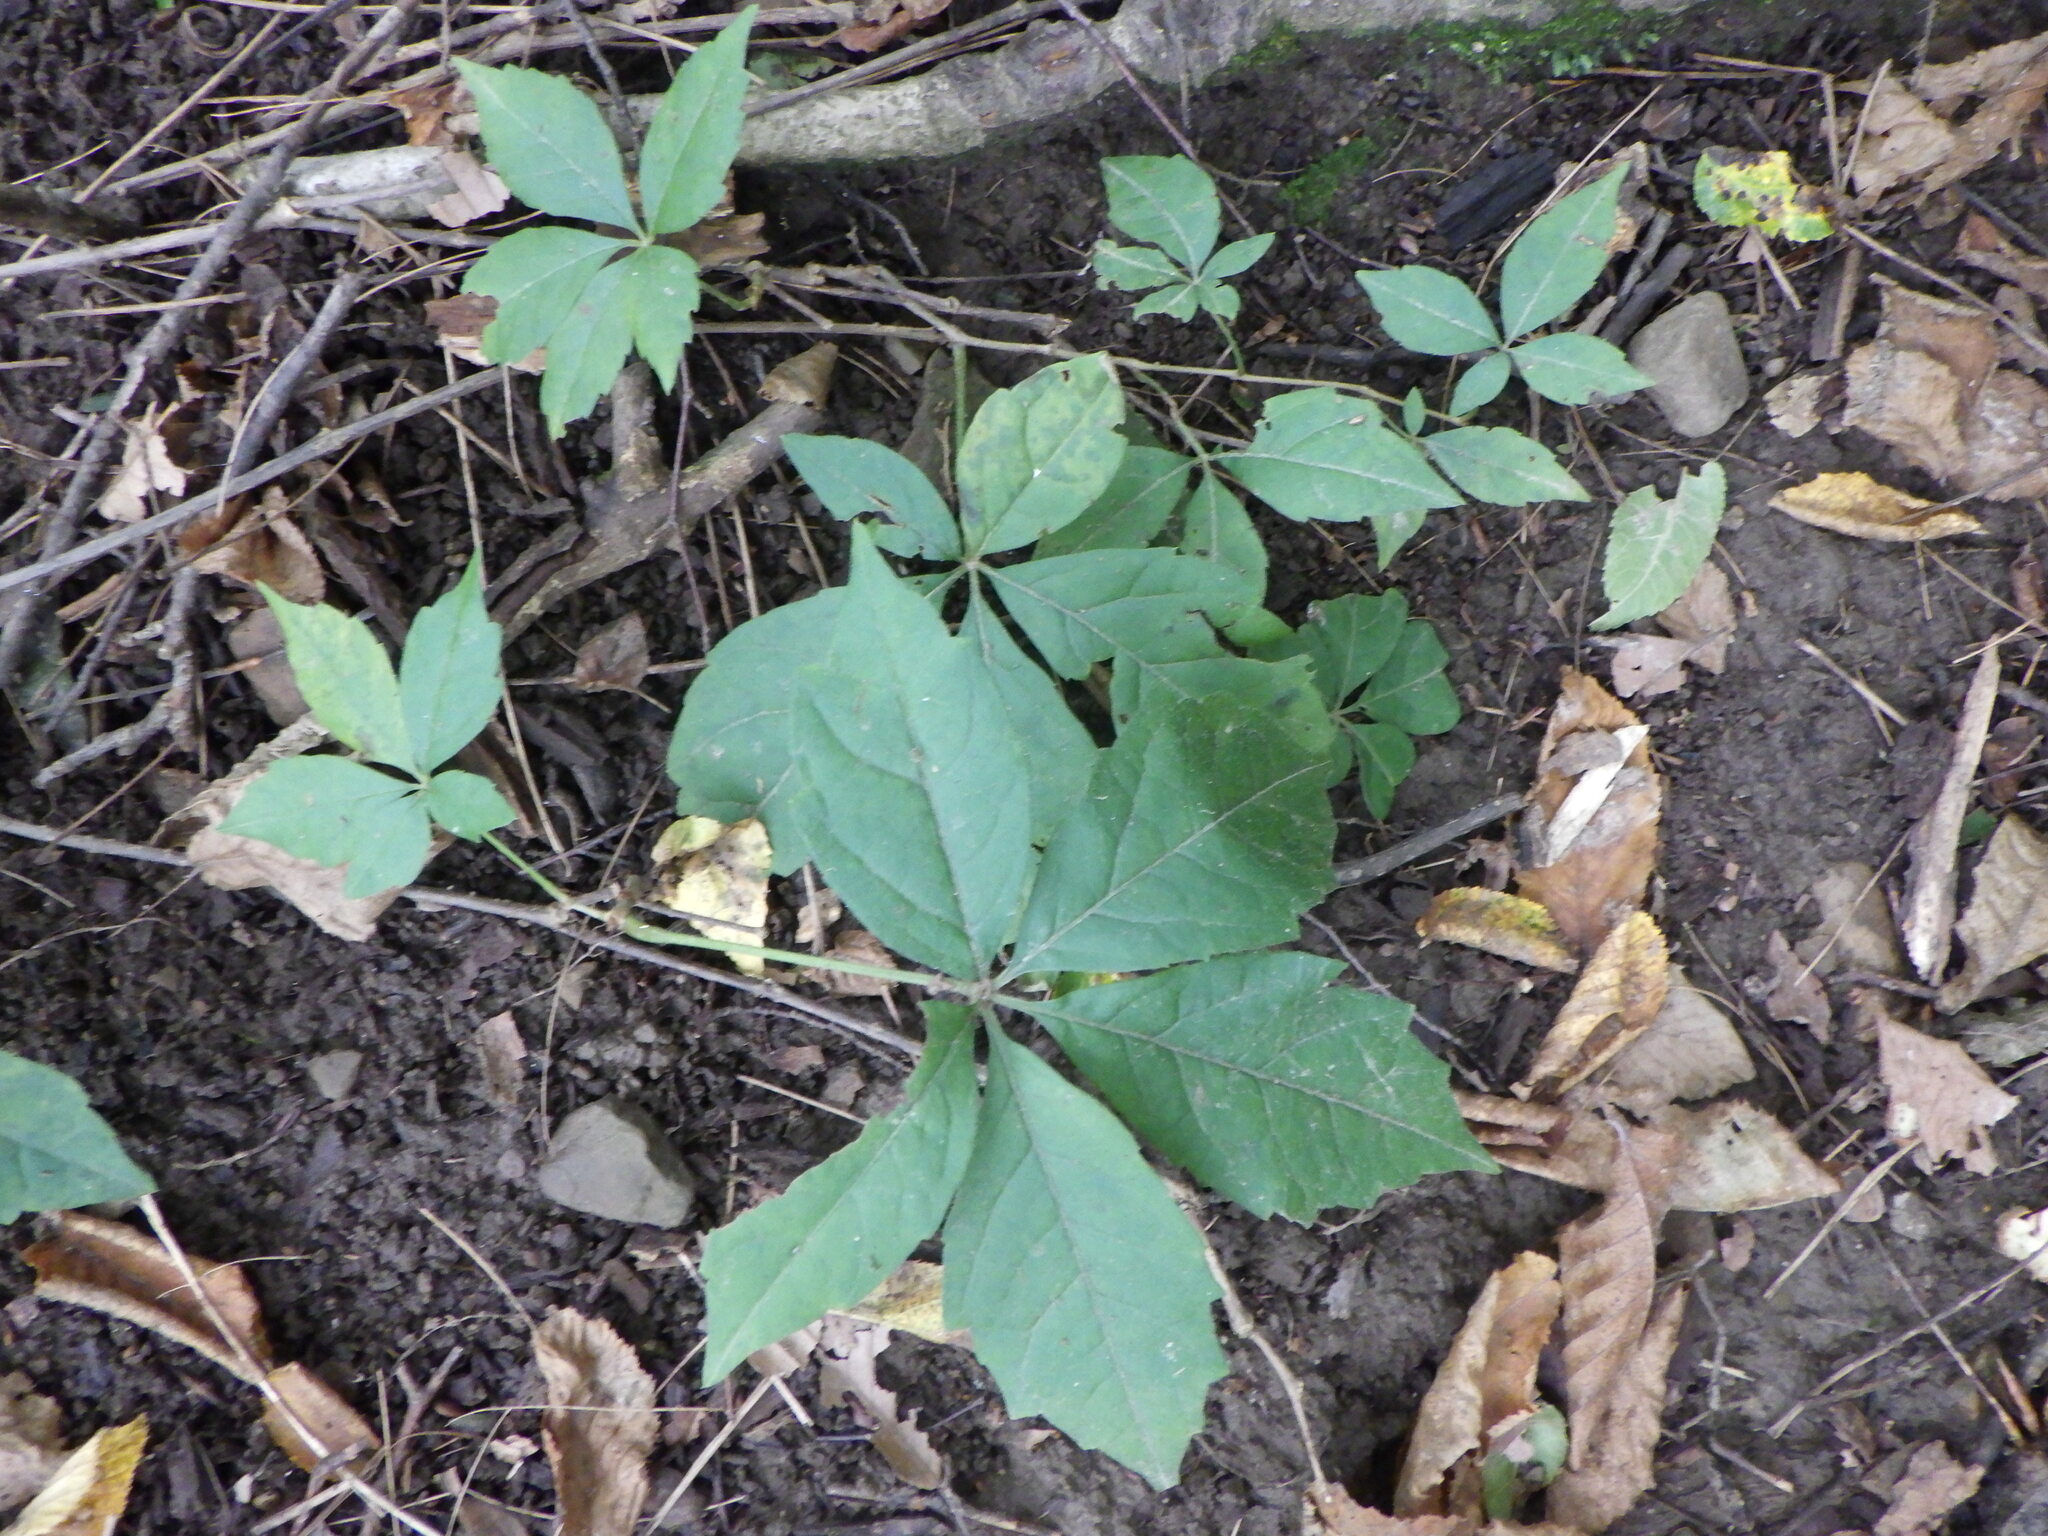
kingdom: Plantae
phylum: Tracheophyta
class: Magnoliopsida
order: Vitales
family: Vitaceae
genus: Parthenocissus
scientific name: Parthenocissus quinquefolia
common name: Virginia-creeper
